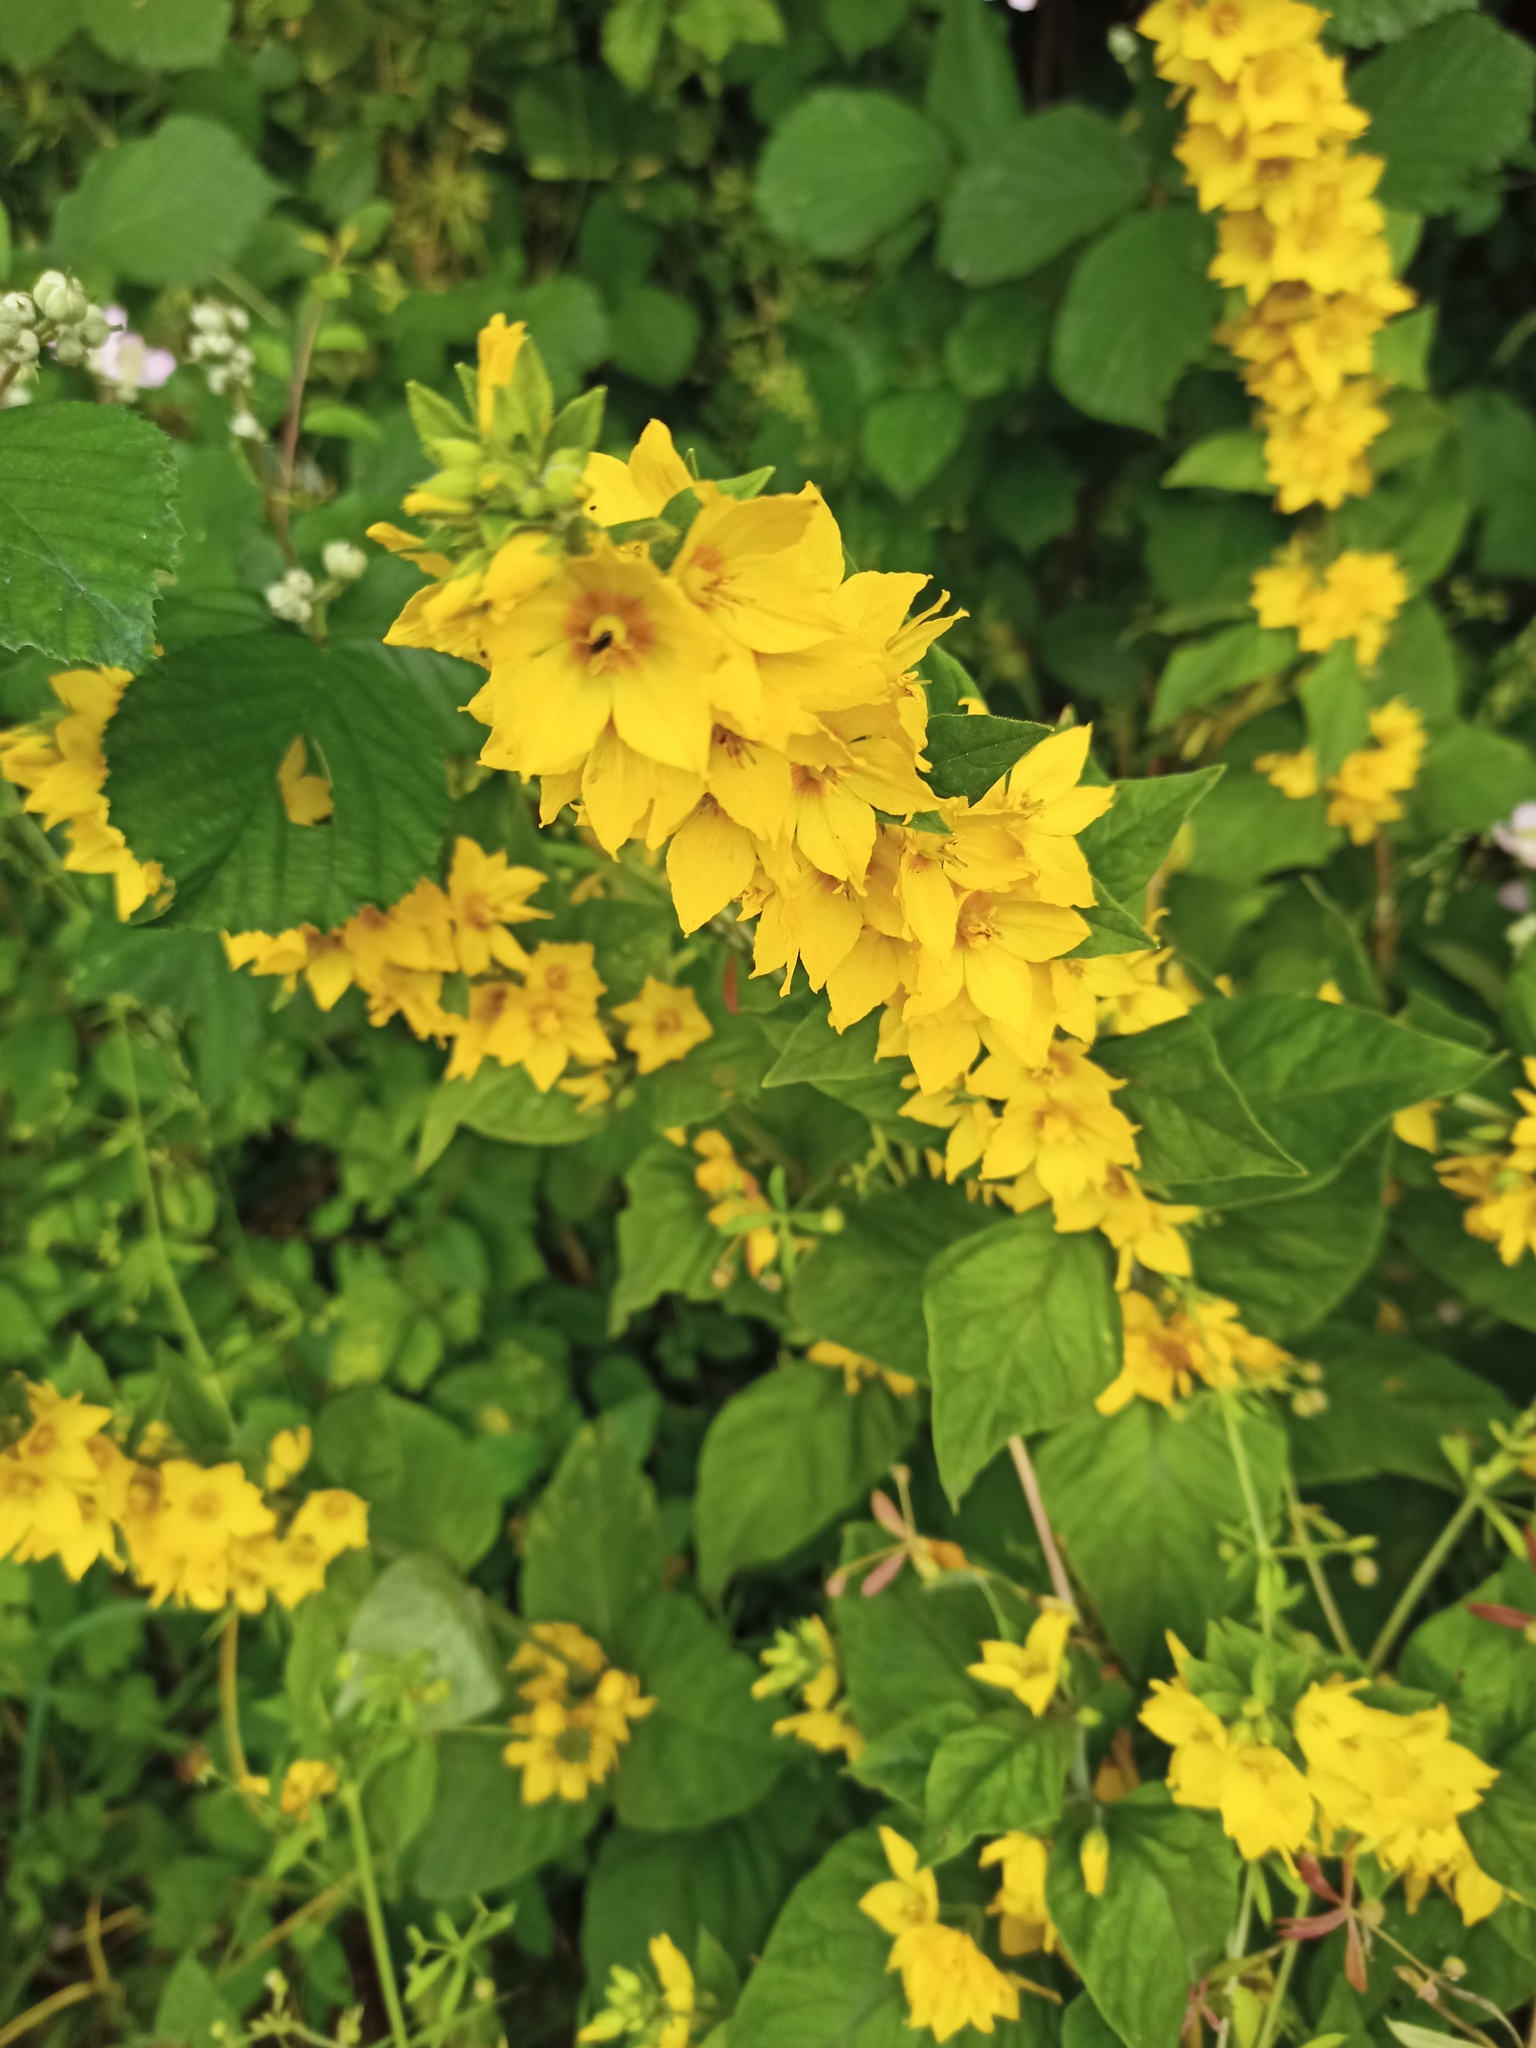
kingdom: Plantae
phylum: Tracheophyta
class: Magnoliopsida
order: Ericales
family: Primulaceae
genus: Lysimachia
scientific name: Lysimachia punctata
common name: Dotted loosestrife
